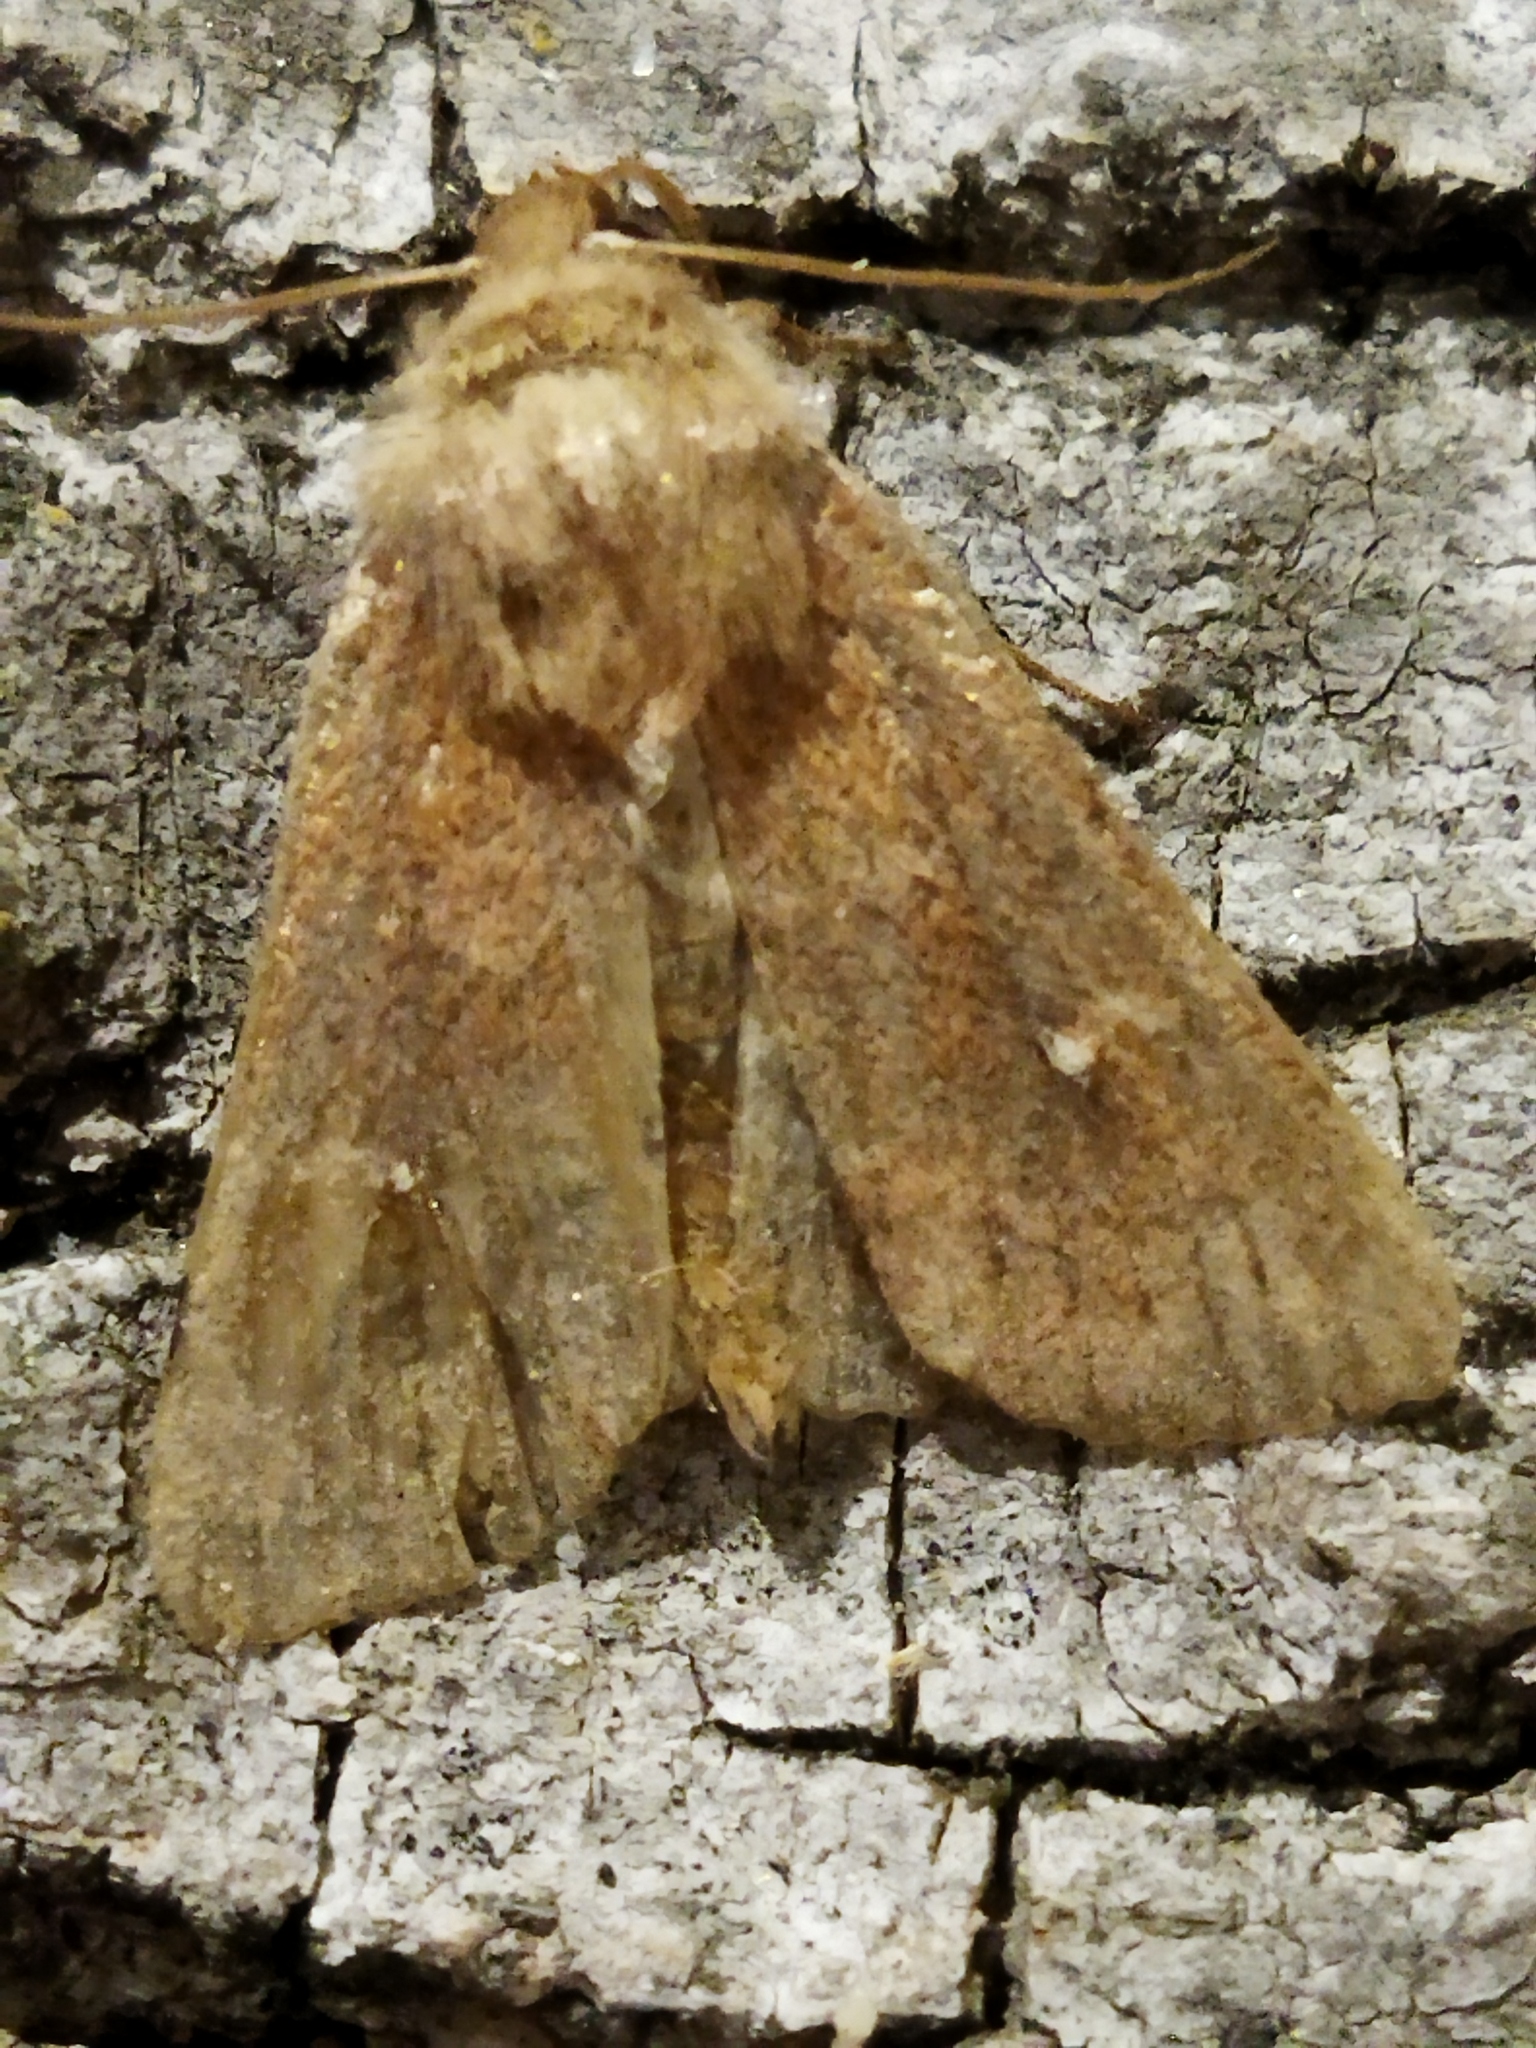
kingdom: Animalia
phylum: Arthropoda
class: Insecta
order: Lepidoptera
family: Noctuidae
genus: Mythimna
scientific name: Mythimna albipuncta
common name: White-point
